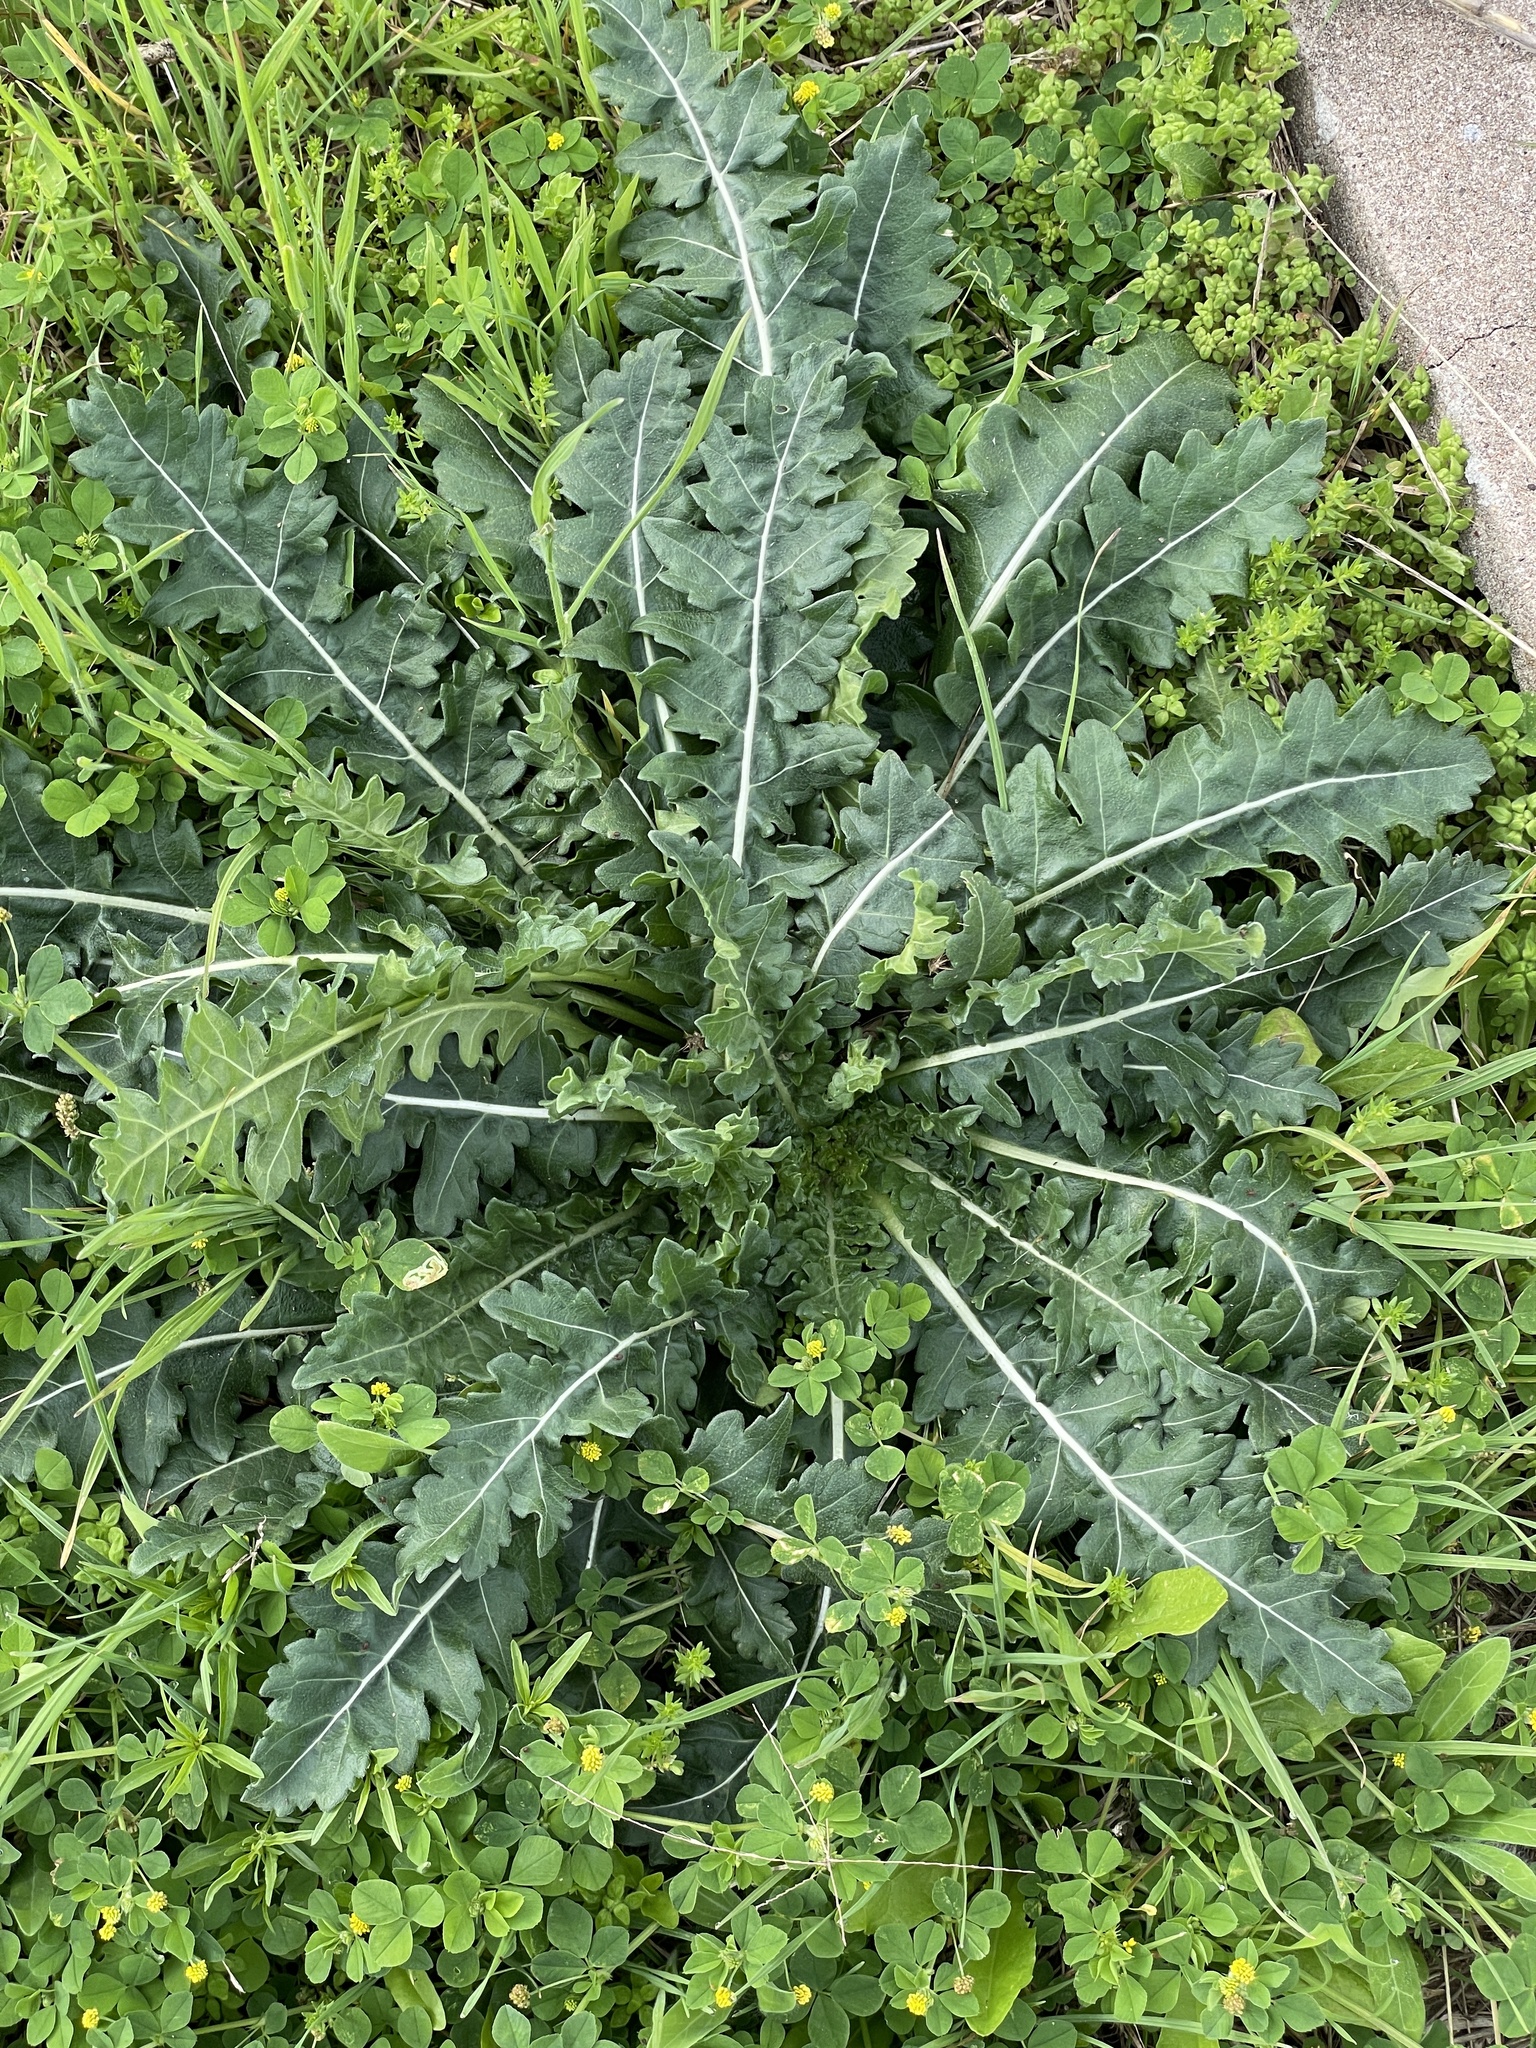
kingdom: Plantae
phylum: Tracheophyta
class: Magnoliopsida
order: Asterales
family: Asteraceae
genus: Engelmannia
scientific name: Engelmannia peristenia
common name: Engelmann's daisy
